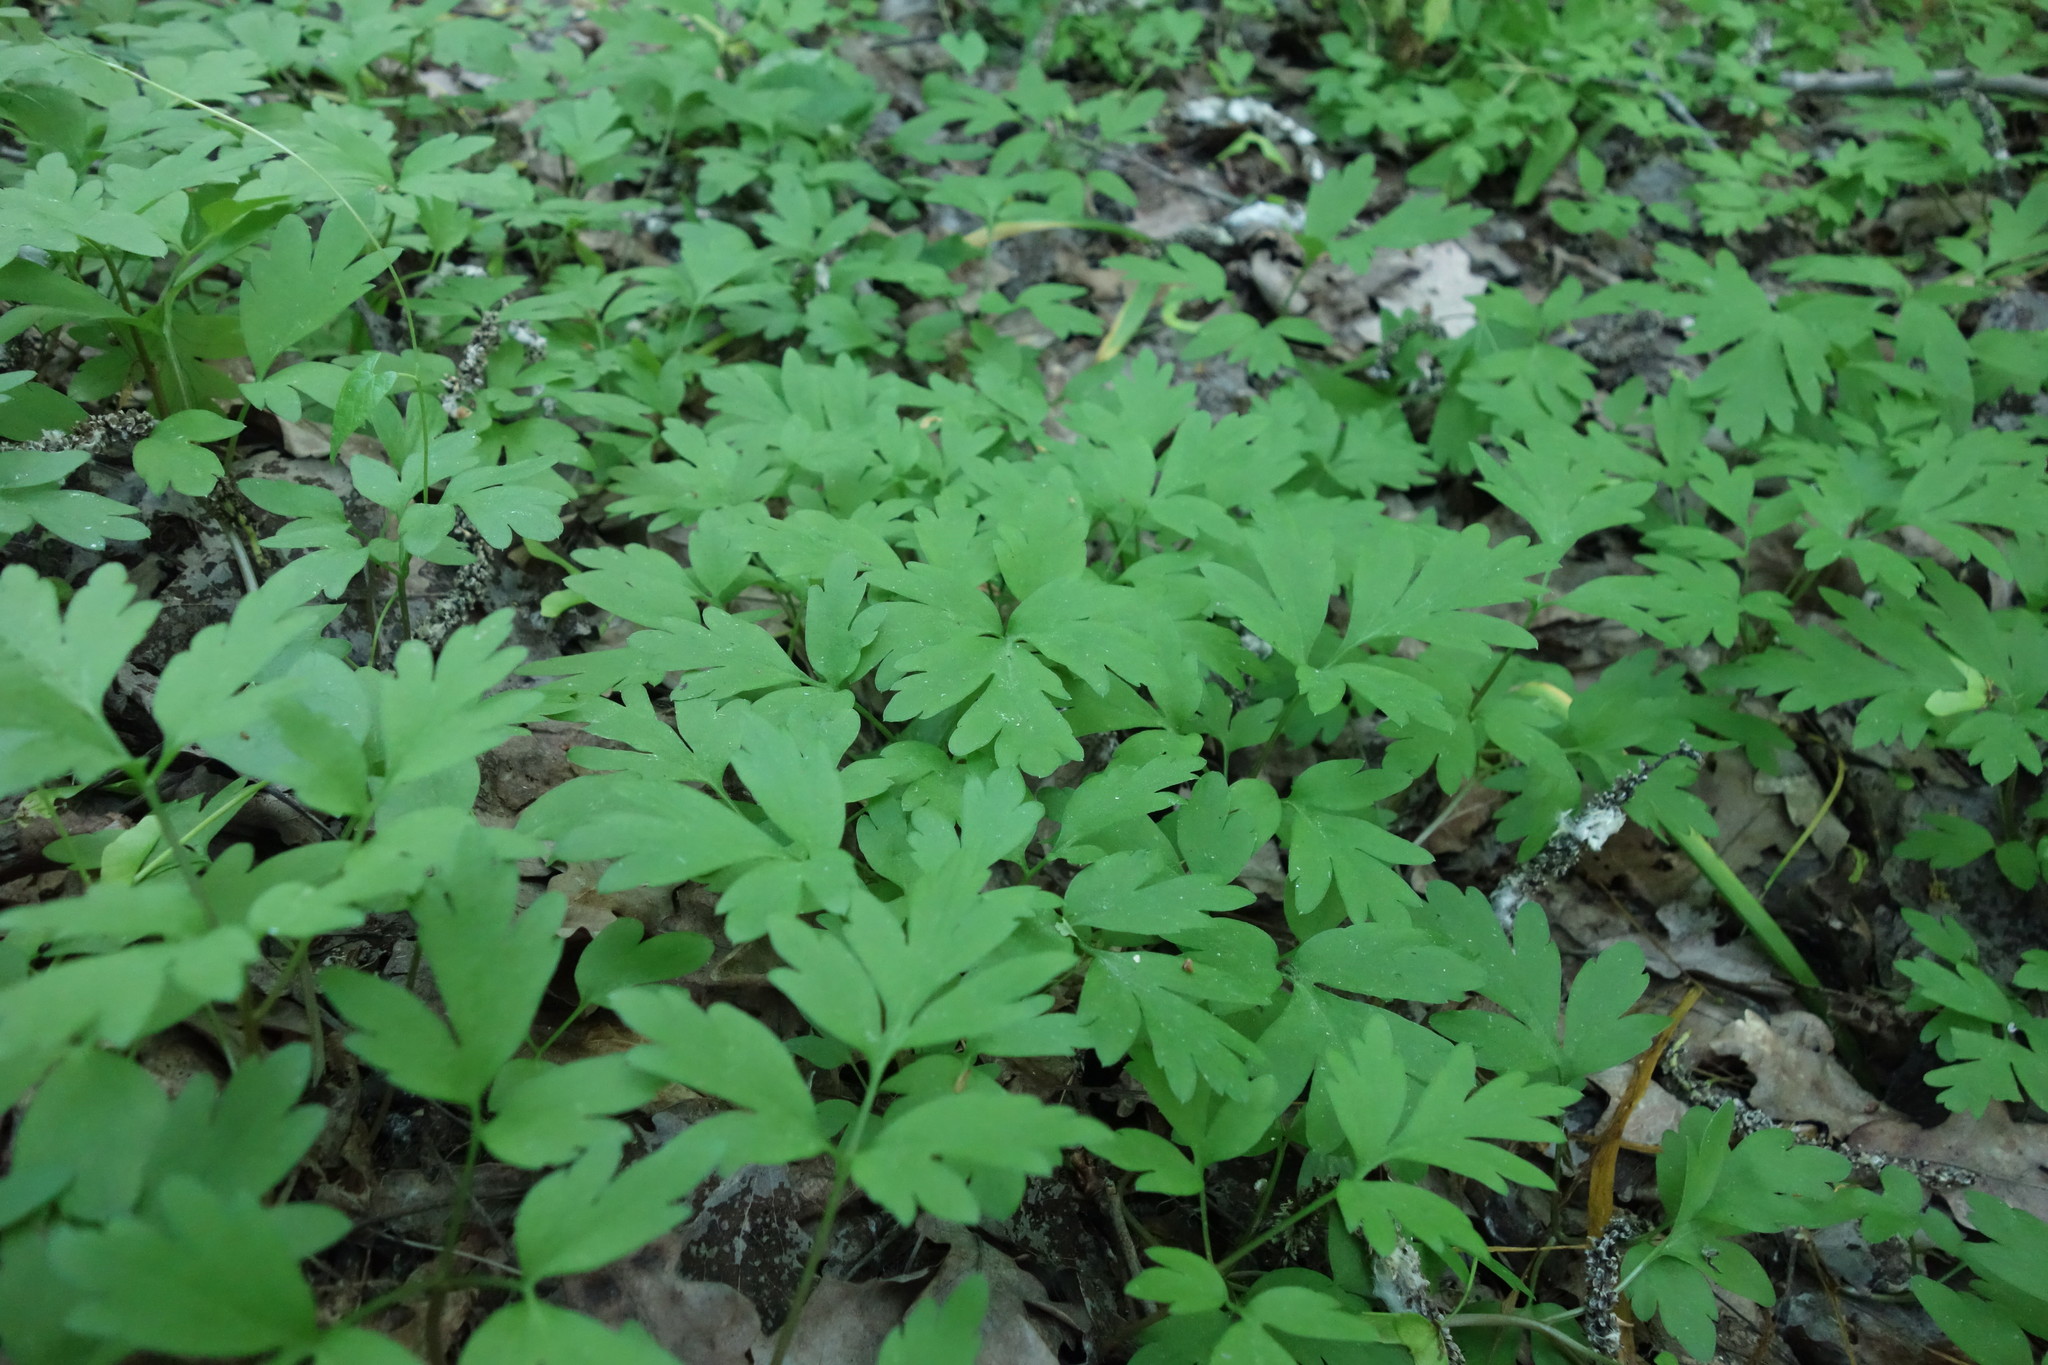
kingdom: Plantae
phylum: Tracheophyta
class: Magnoliopsida
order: Dipsacales
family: Viburnaceae
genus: Adoxa
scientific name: Adoxa moschatellina
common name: Moschatel
